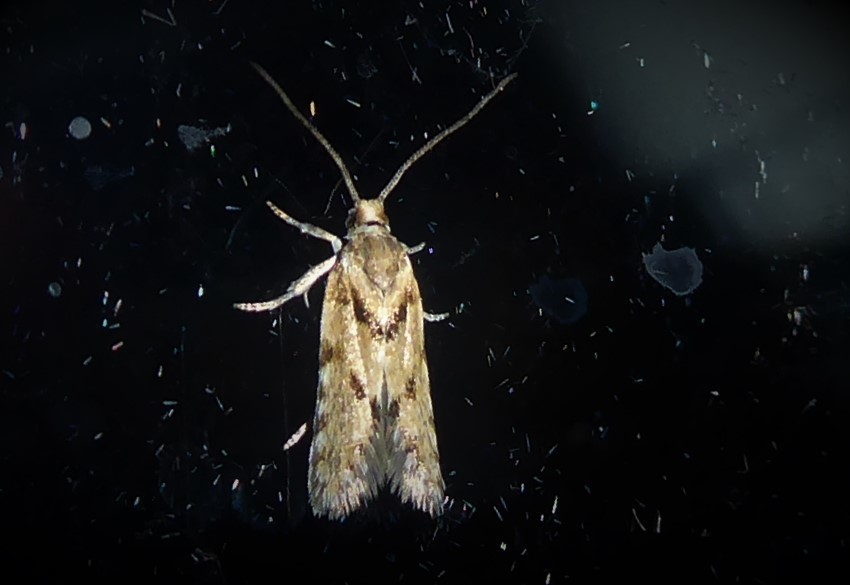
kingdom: Animalia
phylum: Arthropoda
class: Insecta
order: Lepidoptera
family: Tortricidae
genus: Eurythecta
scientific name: Eurythecta zelaea
